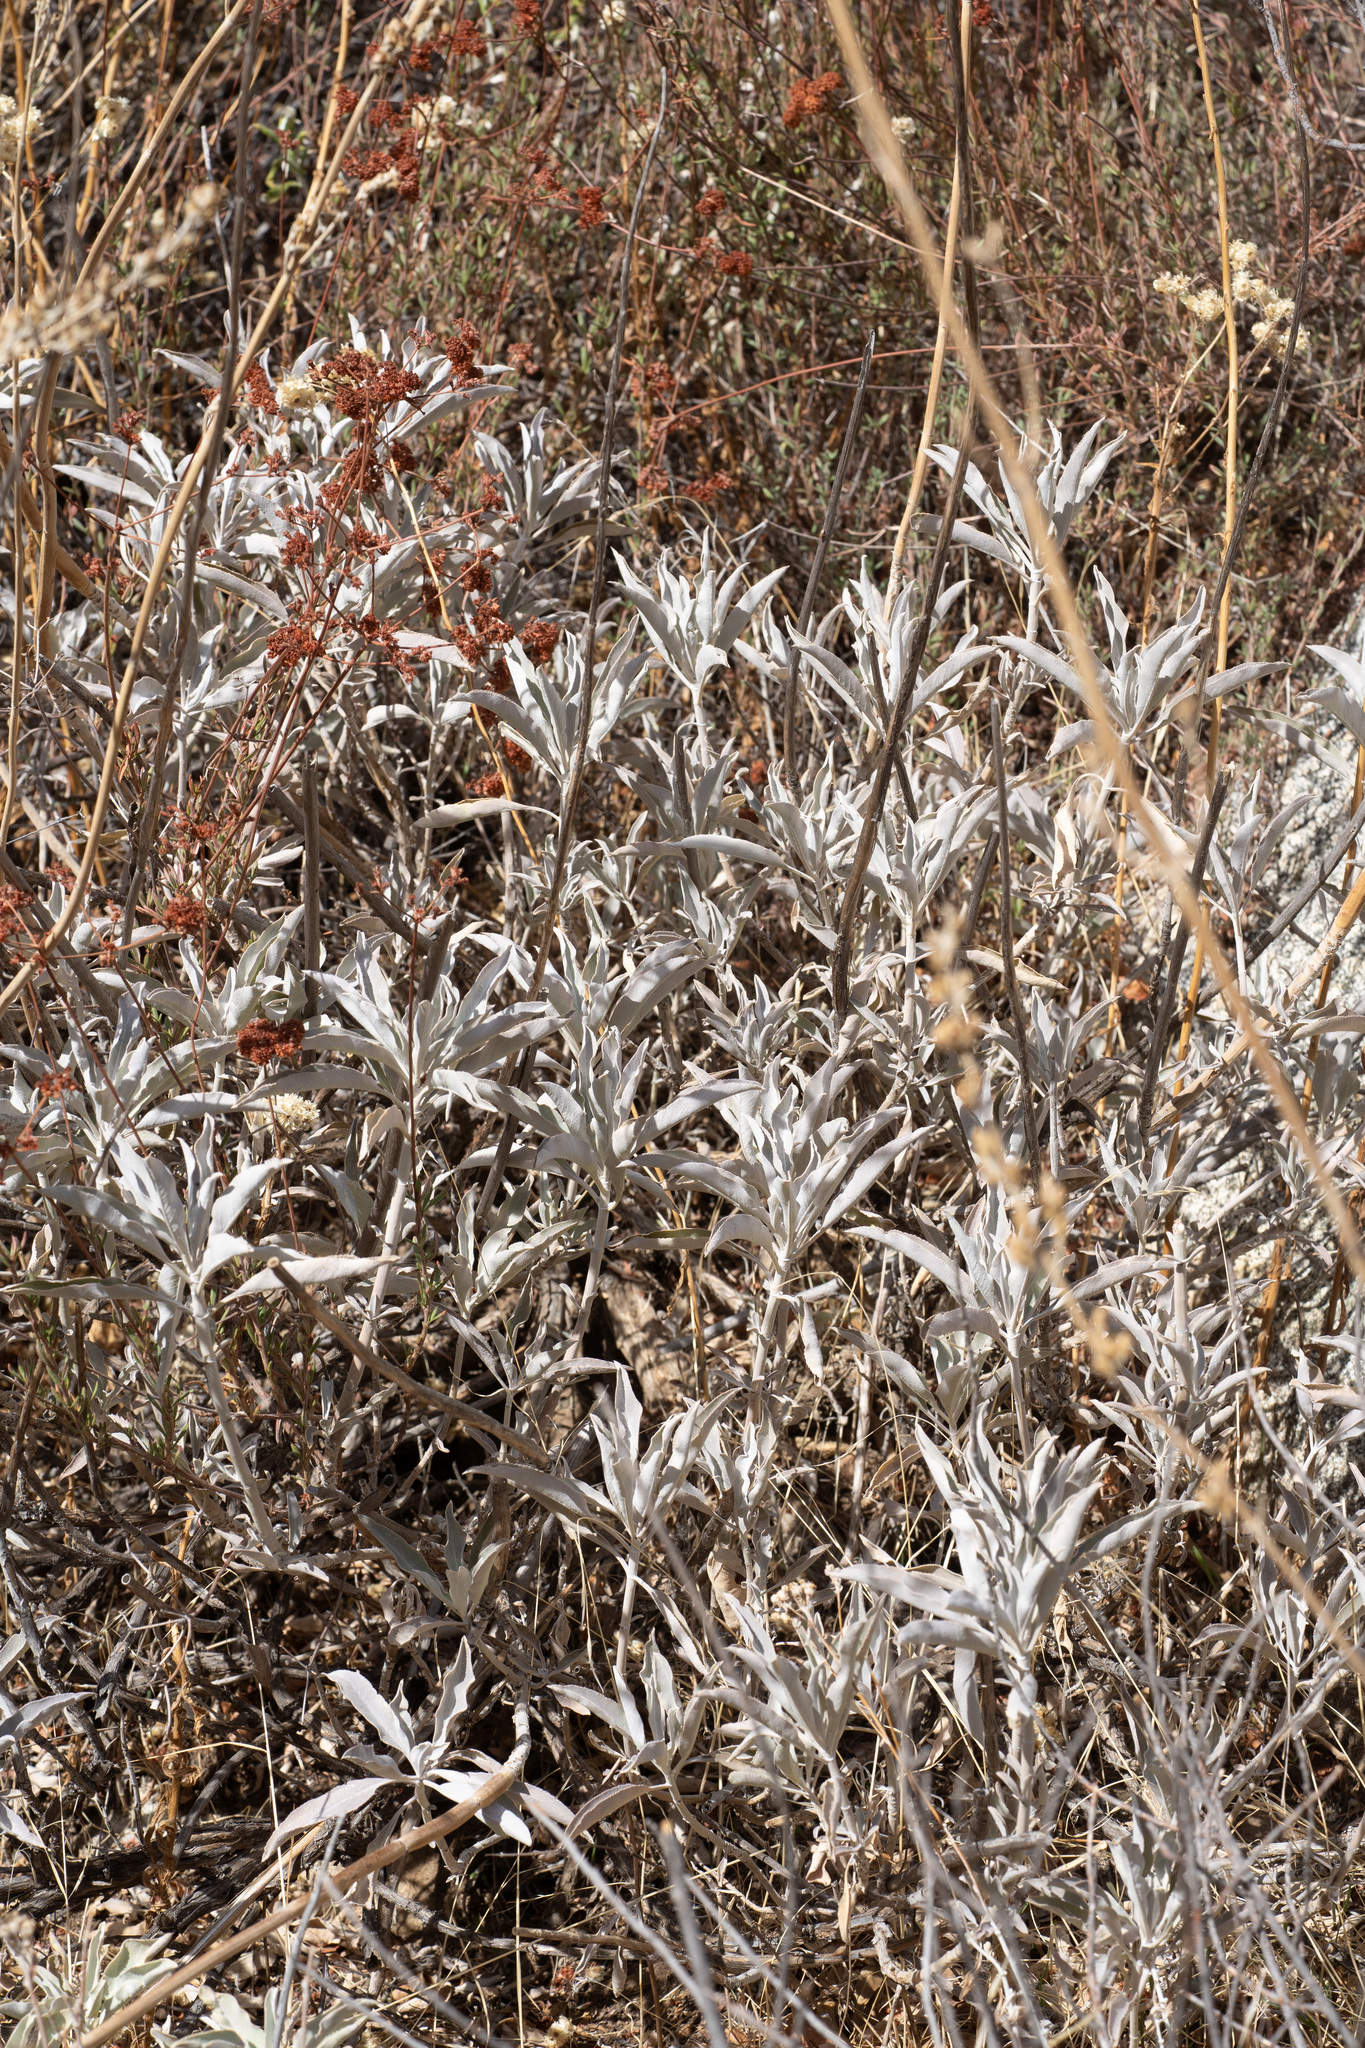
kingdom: Plantae
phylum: Tracheophyta
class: Magnoliopsida
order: Lamiales
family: Lamiaceae
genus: Salvia
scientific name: Salvia apiana
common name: White sage
